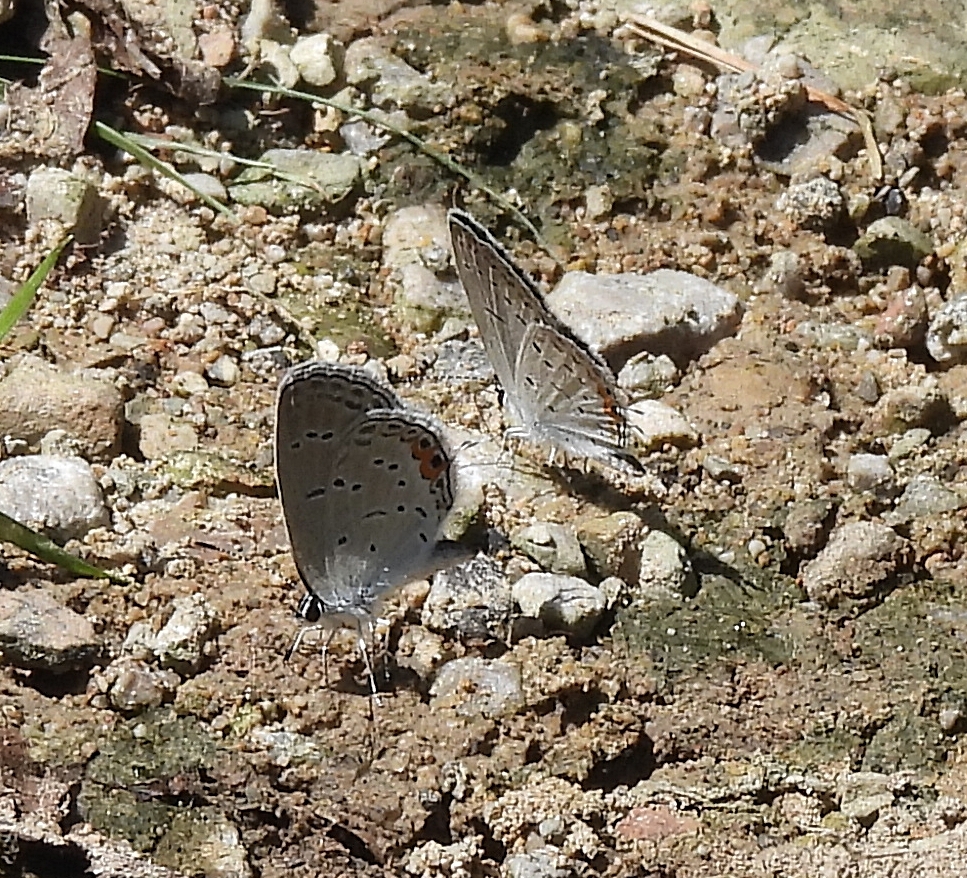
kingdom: Animalia
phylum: Arthropoda
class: Insecta
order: Lepidoptera
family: Lycaenidae
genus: Elkalyce
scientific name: Elkalyce comyntas
